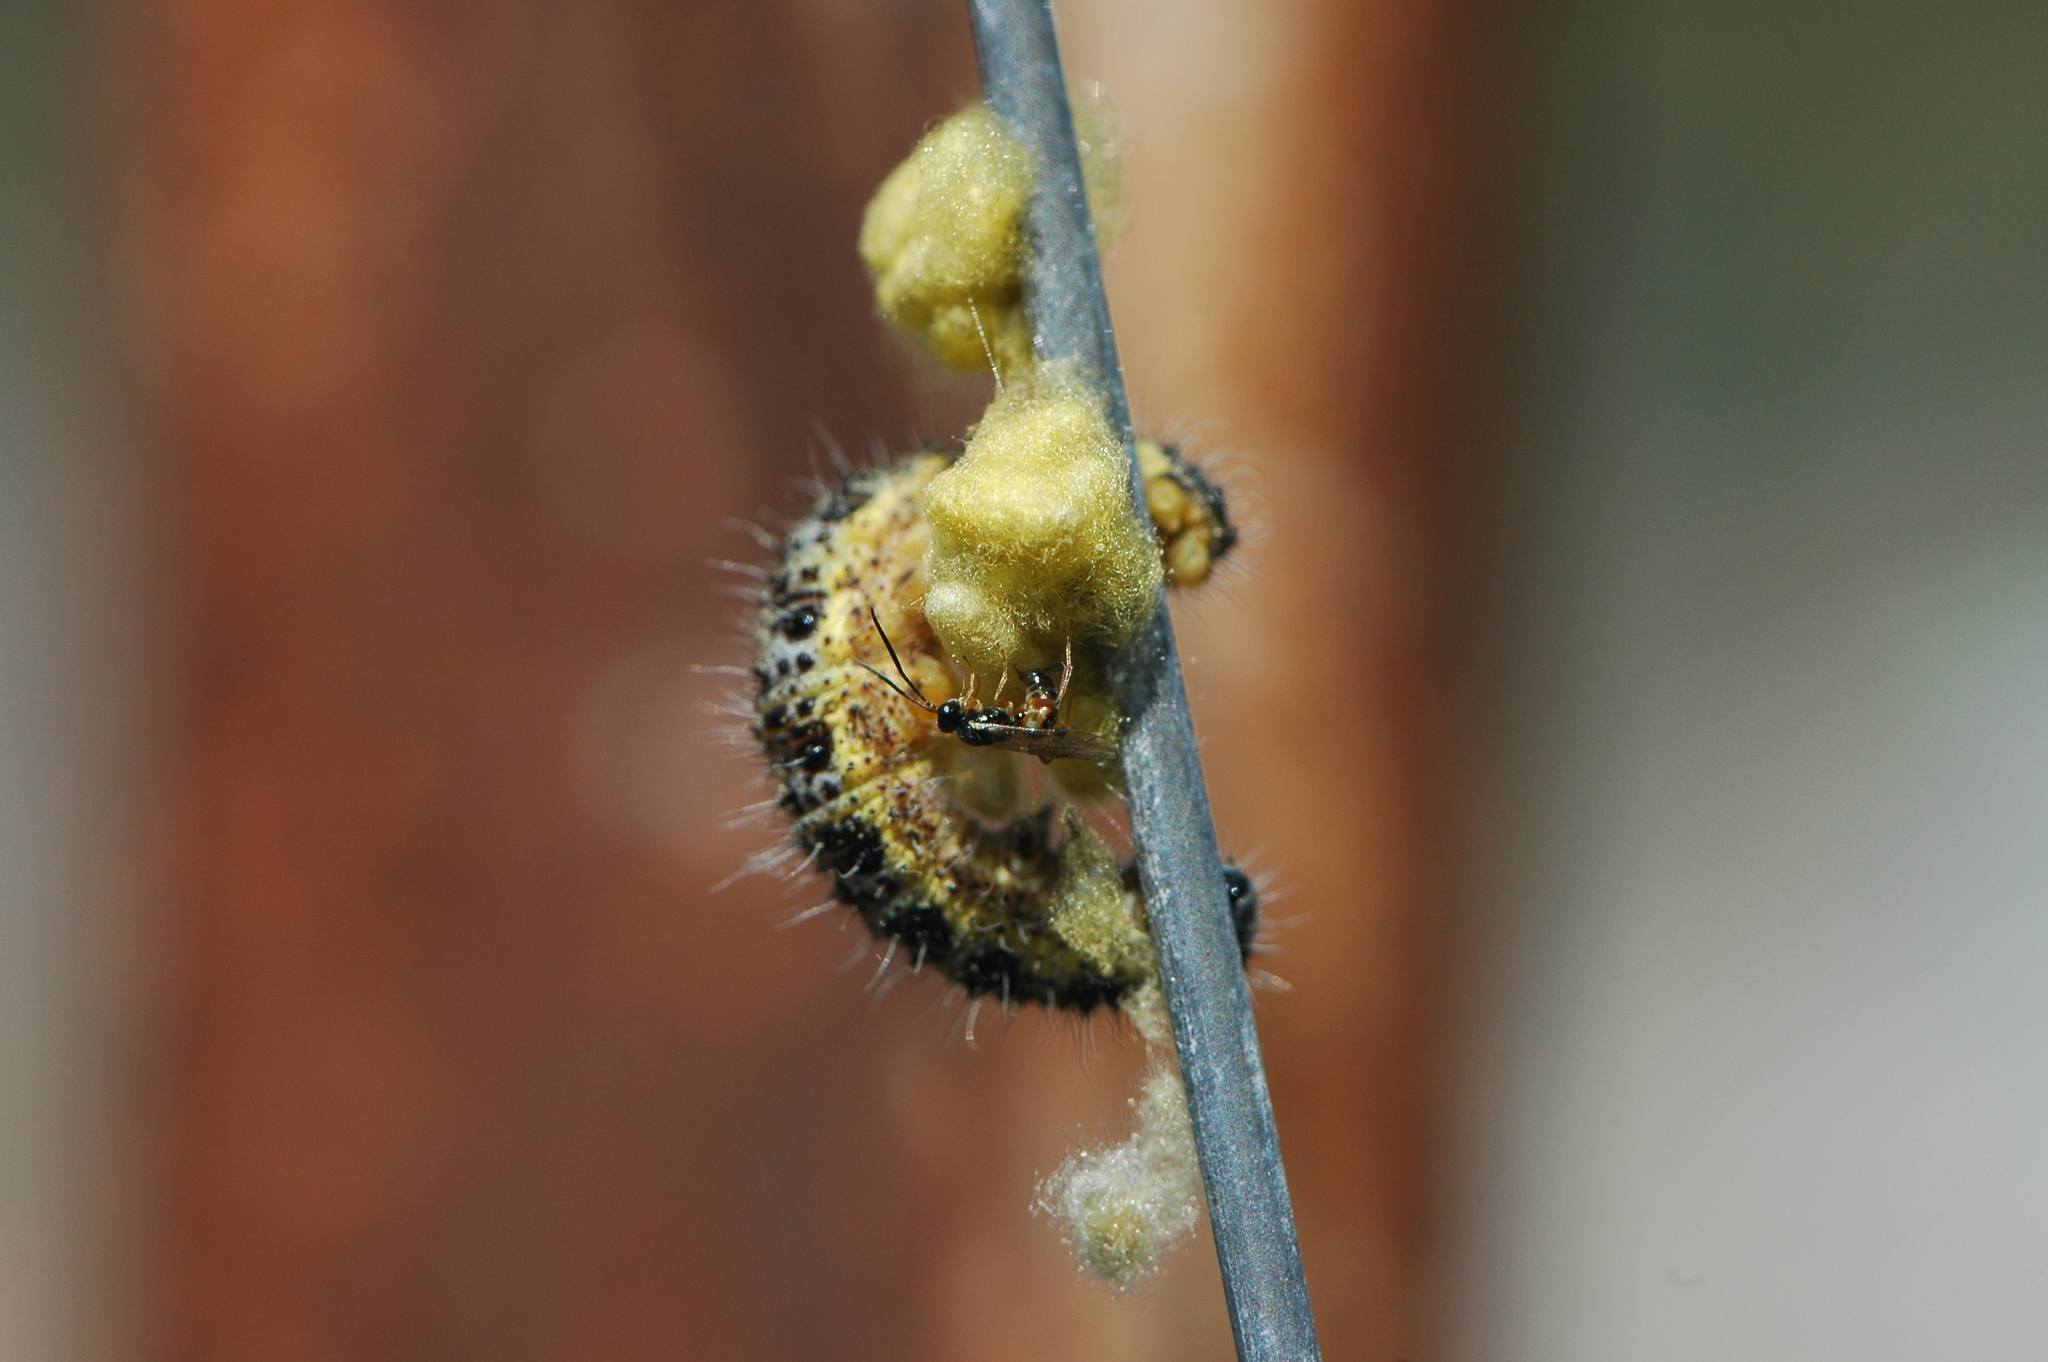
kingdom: Animalia
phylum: Arthropoda
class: Insecta
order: Hymenoptera
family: Braconidae
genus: Cotesia
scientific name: Cotesia glomerata
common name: Parasitoid wasp
